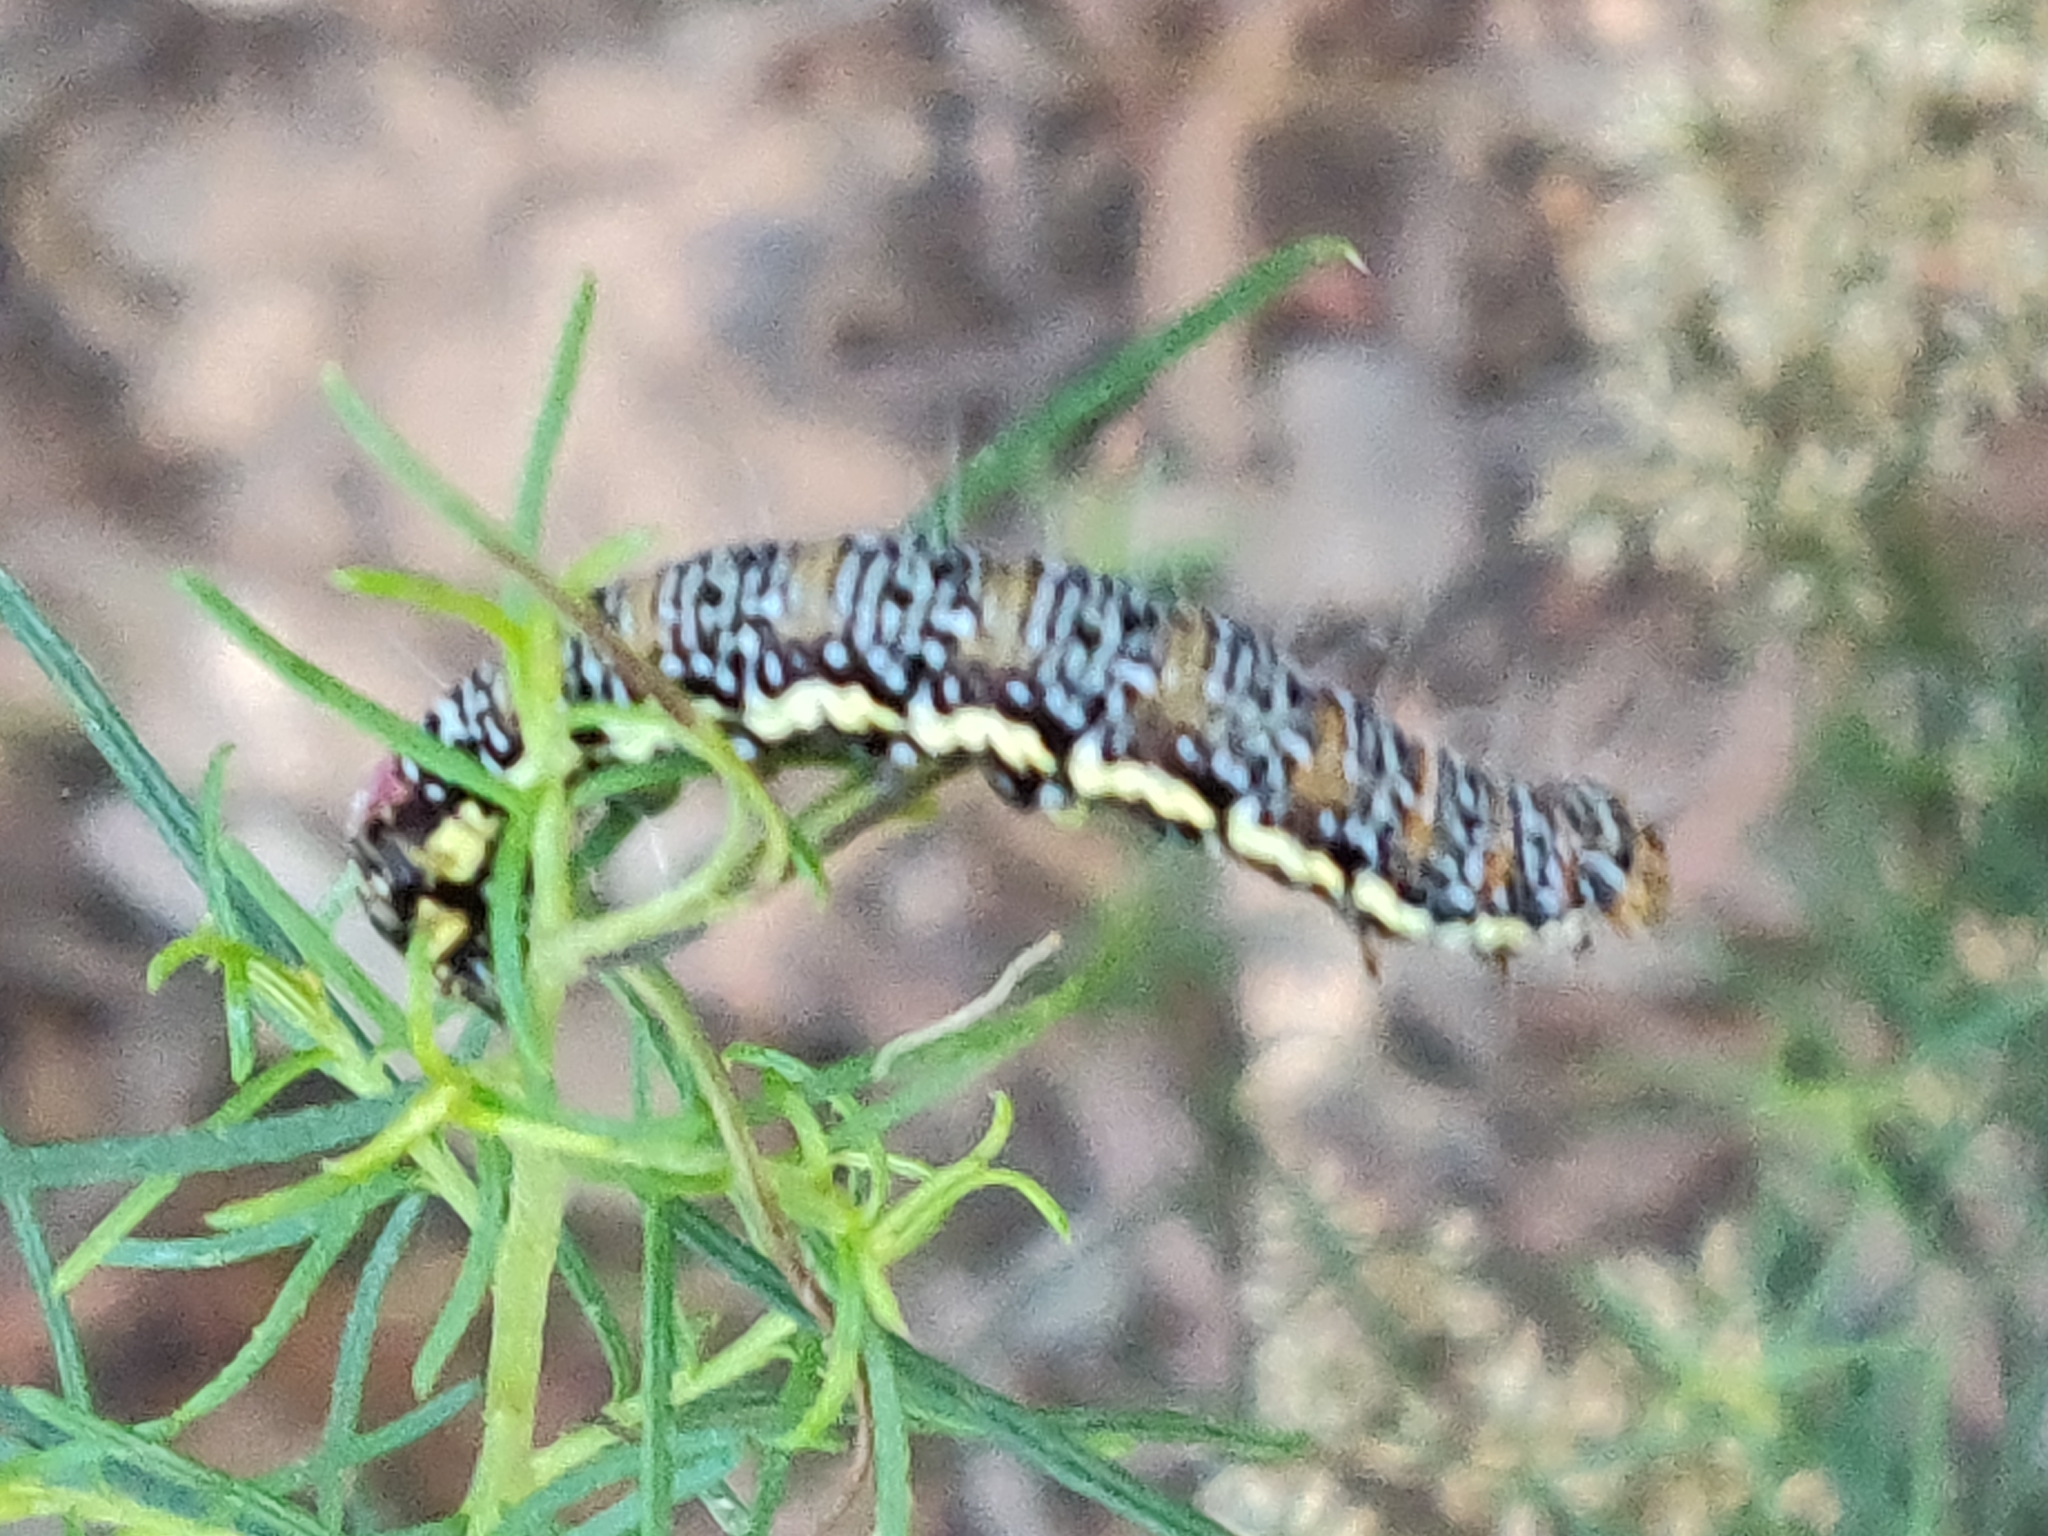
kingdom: Animalia
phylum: Arthropoda
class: Insecta
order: Lepidoptera
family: Noctuidae
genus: Hecatesia
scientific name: Hecatesia fenestrata
